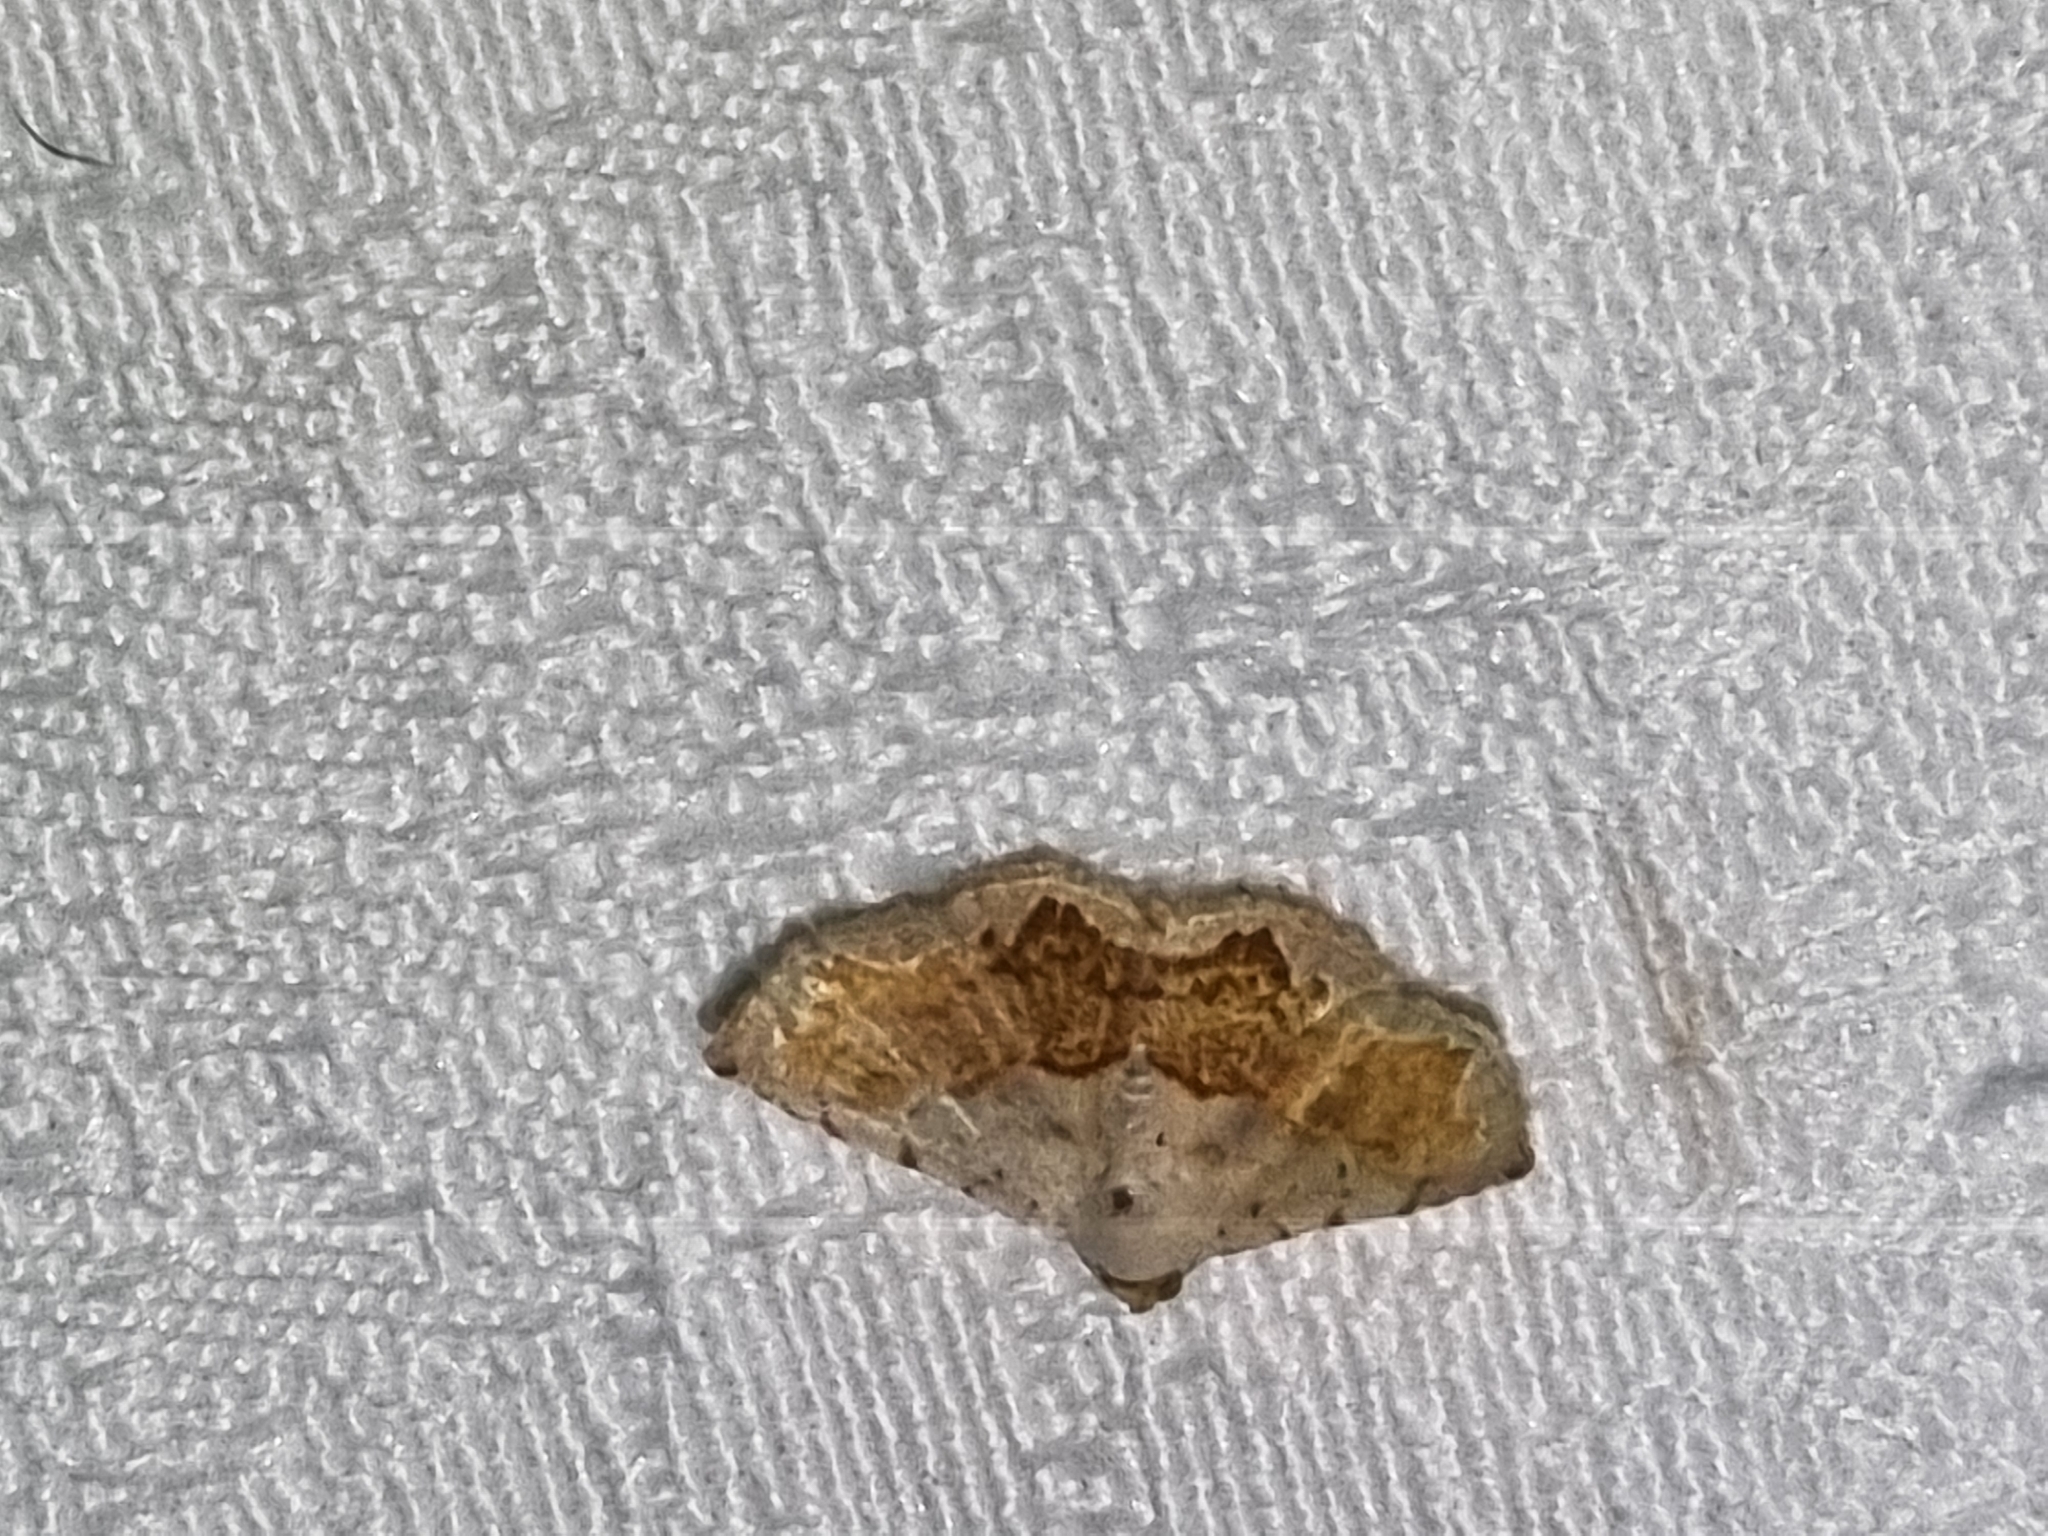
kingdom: Animalia
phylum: Arthropoda
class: Insecta
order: Lepidoptera
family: Noctuidae
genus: Eublemma
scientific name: Eublemma
